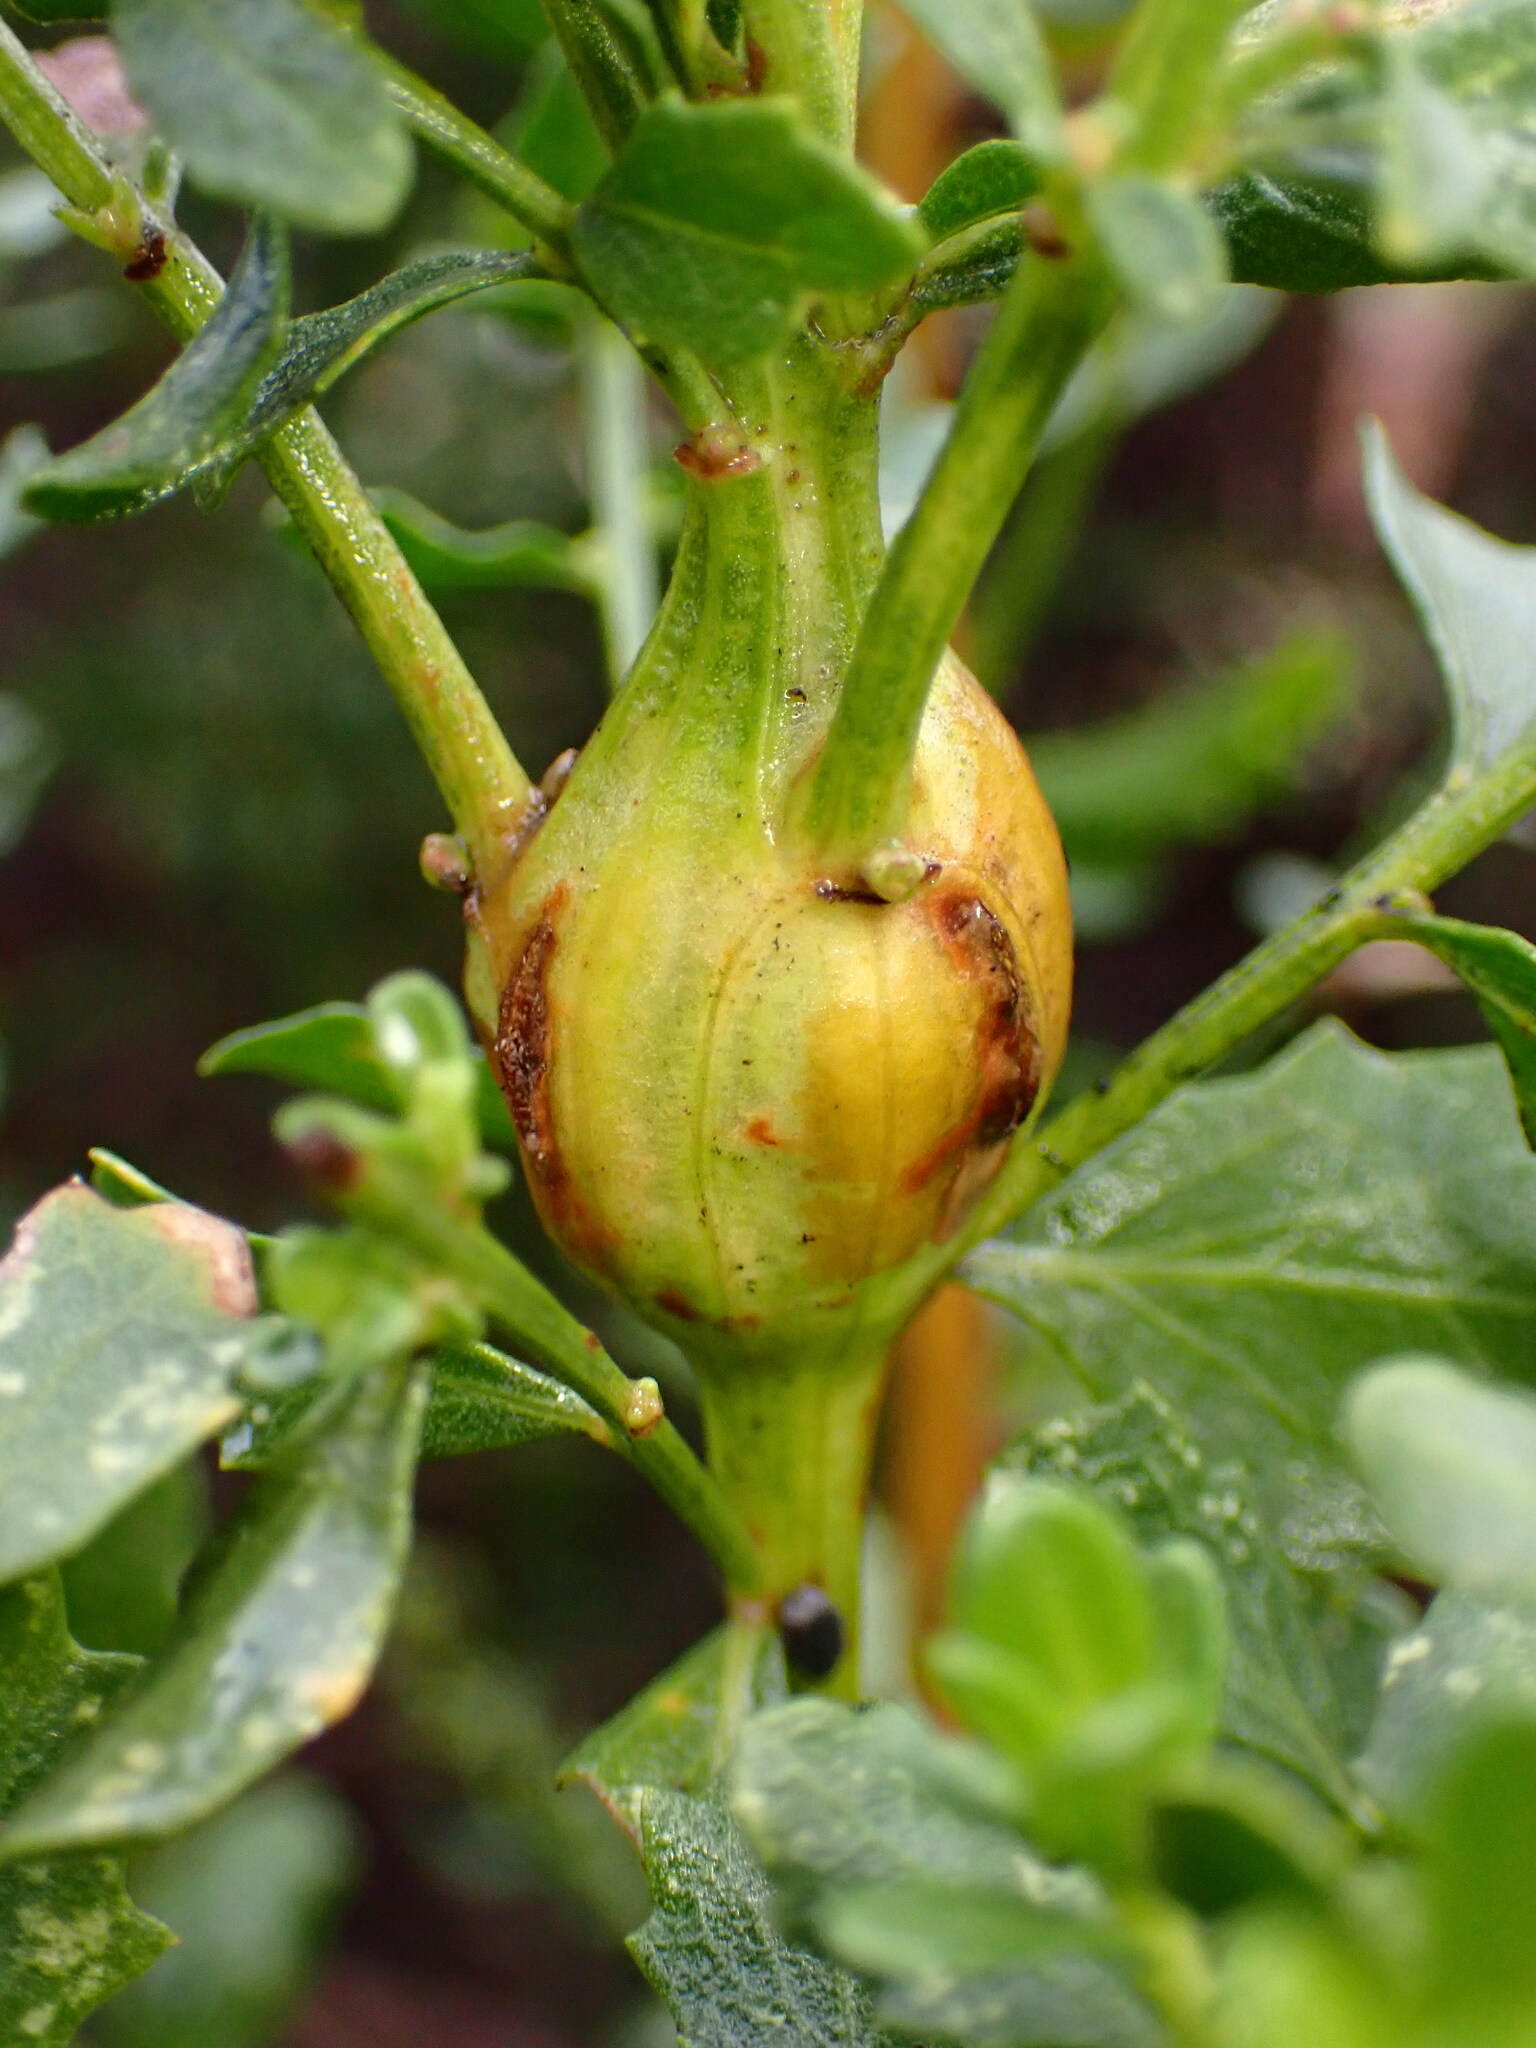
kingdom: Animalia
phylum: Arthropoda
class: Insecta
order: Lepidoptera
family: Gelechiidae
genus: Gnorimoschema
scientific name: Gnorimoschema baccharisella
